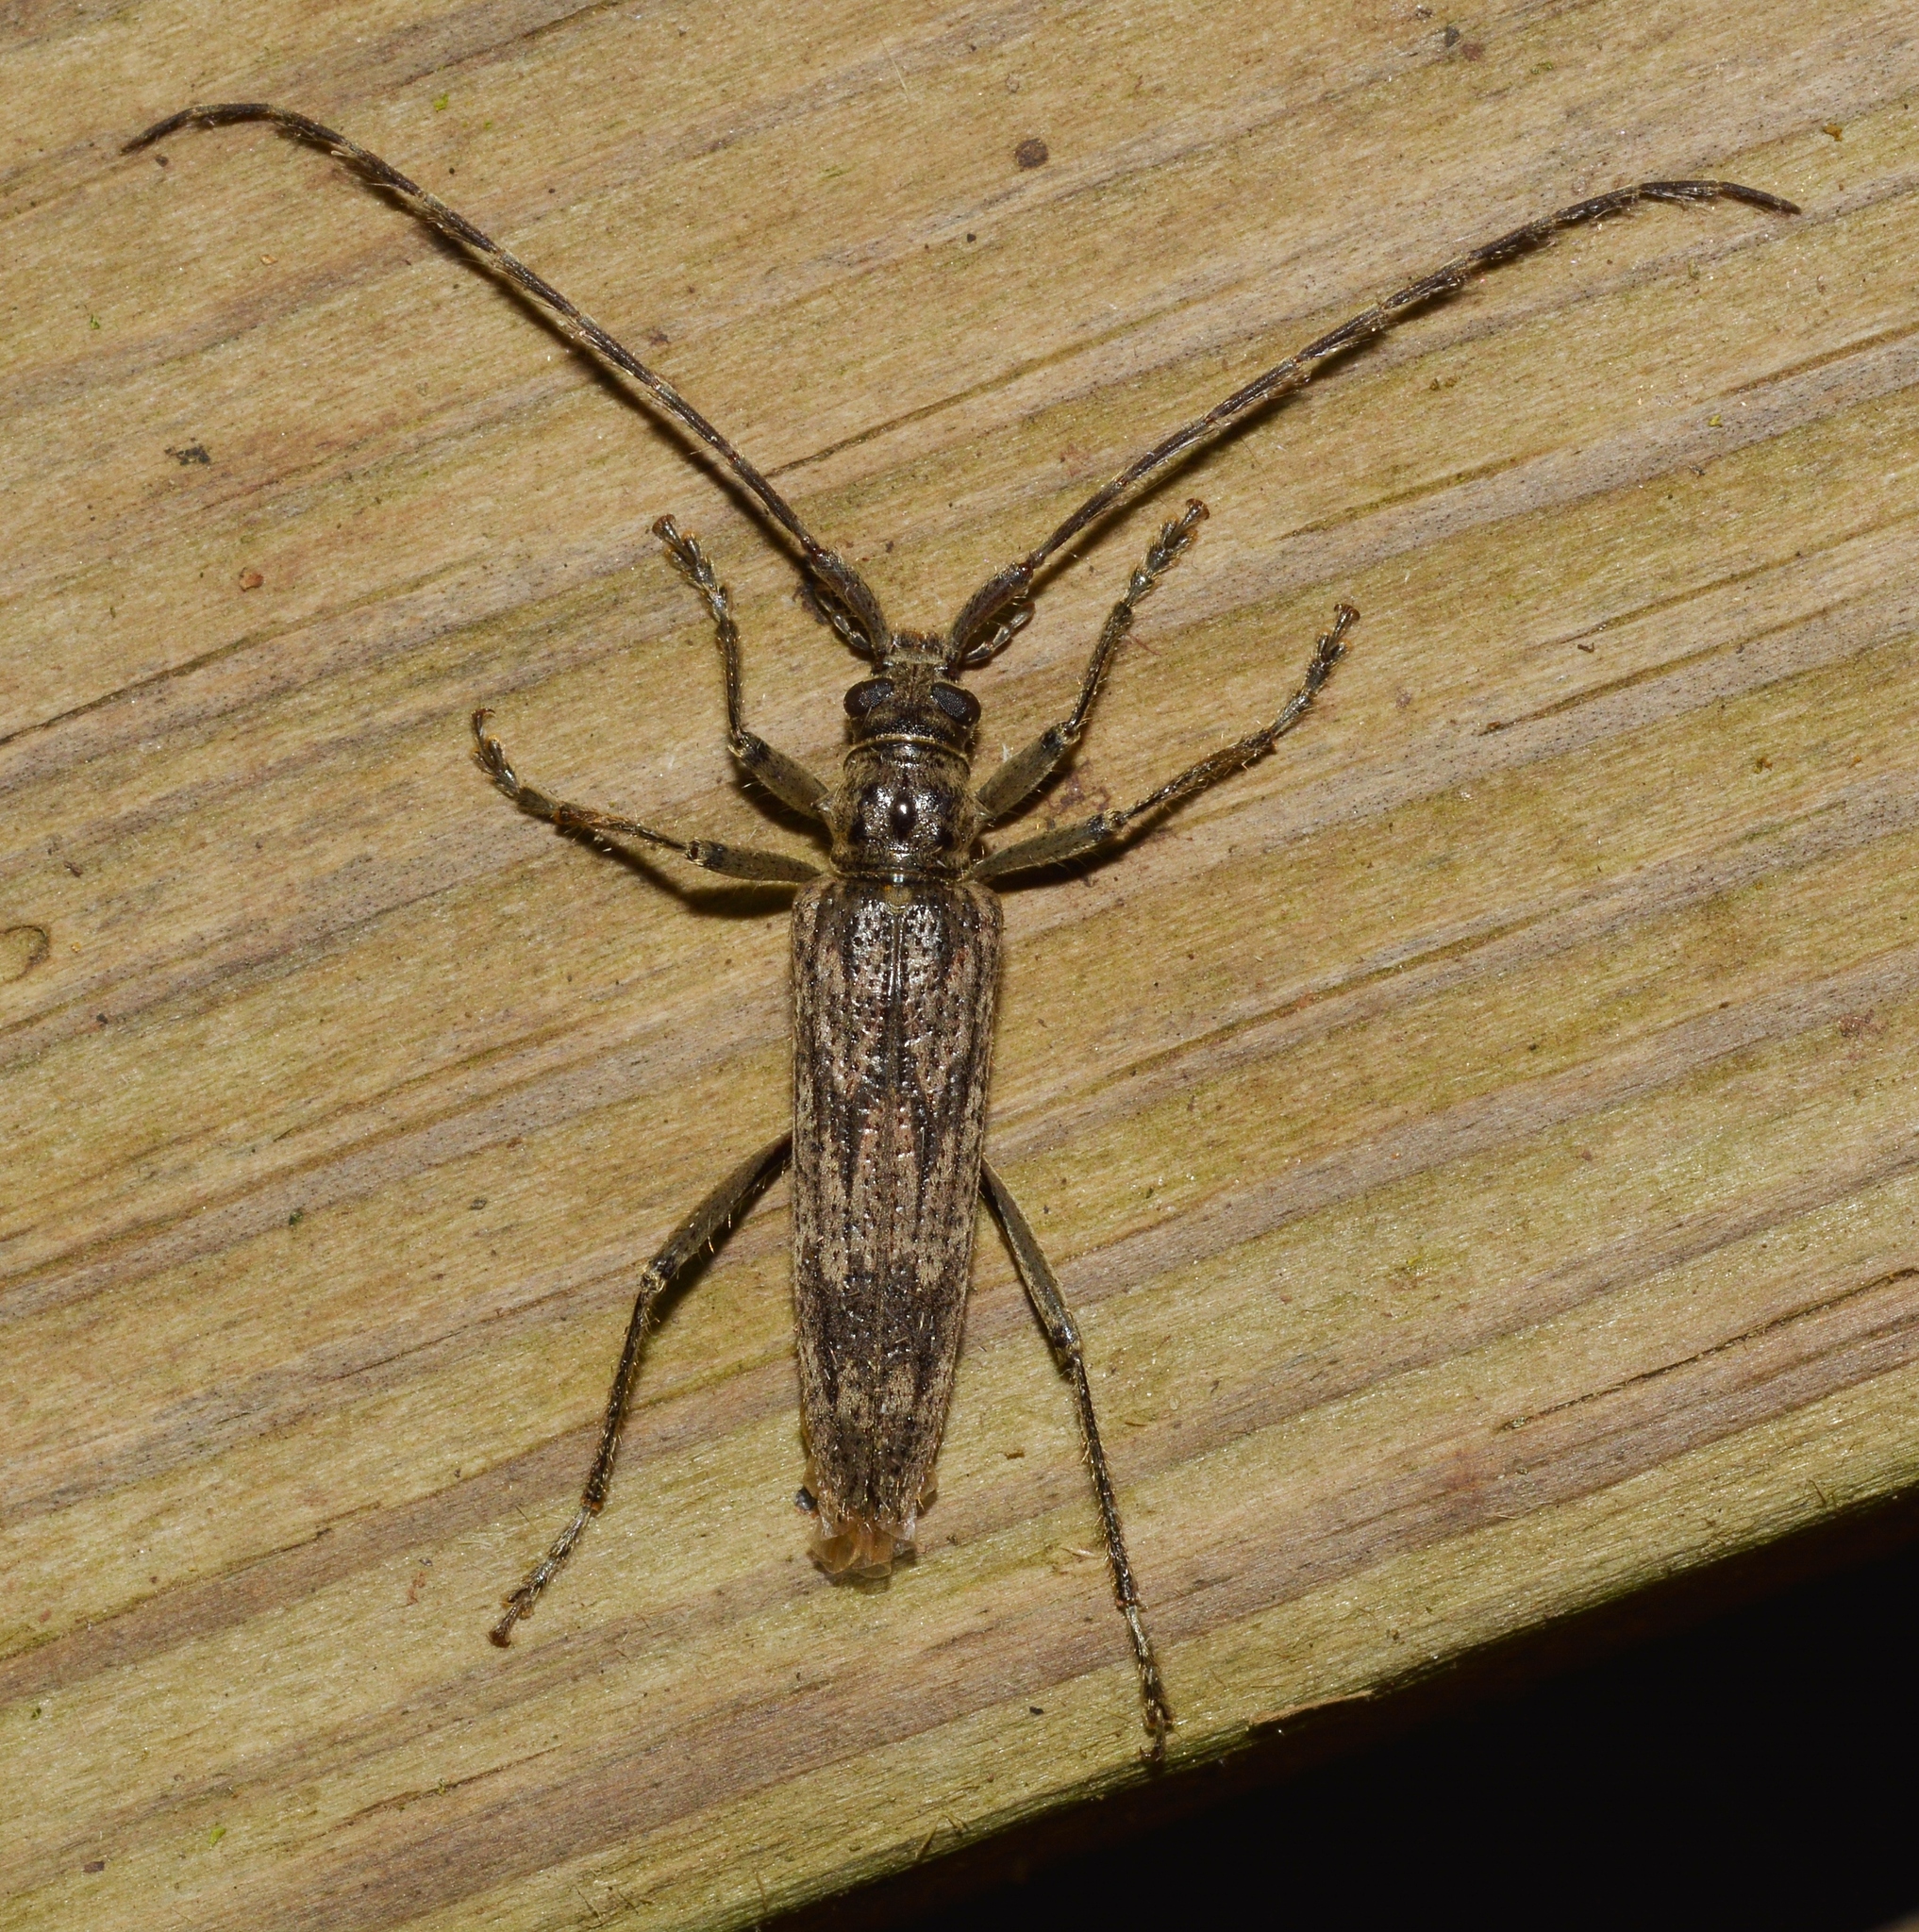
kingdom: Animalia
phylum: Arthropoda
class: Insecta
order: Coleoptera
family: Cerambycidae
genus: Elytrimitatrix
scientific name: Elytrimitatrix undata
